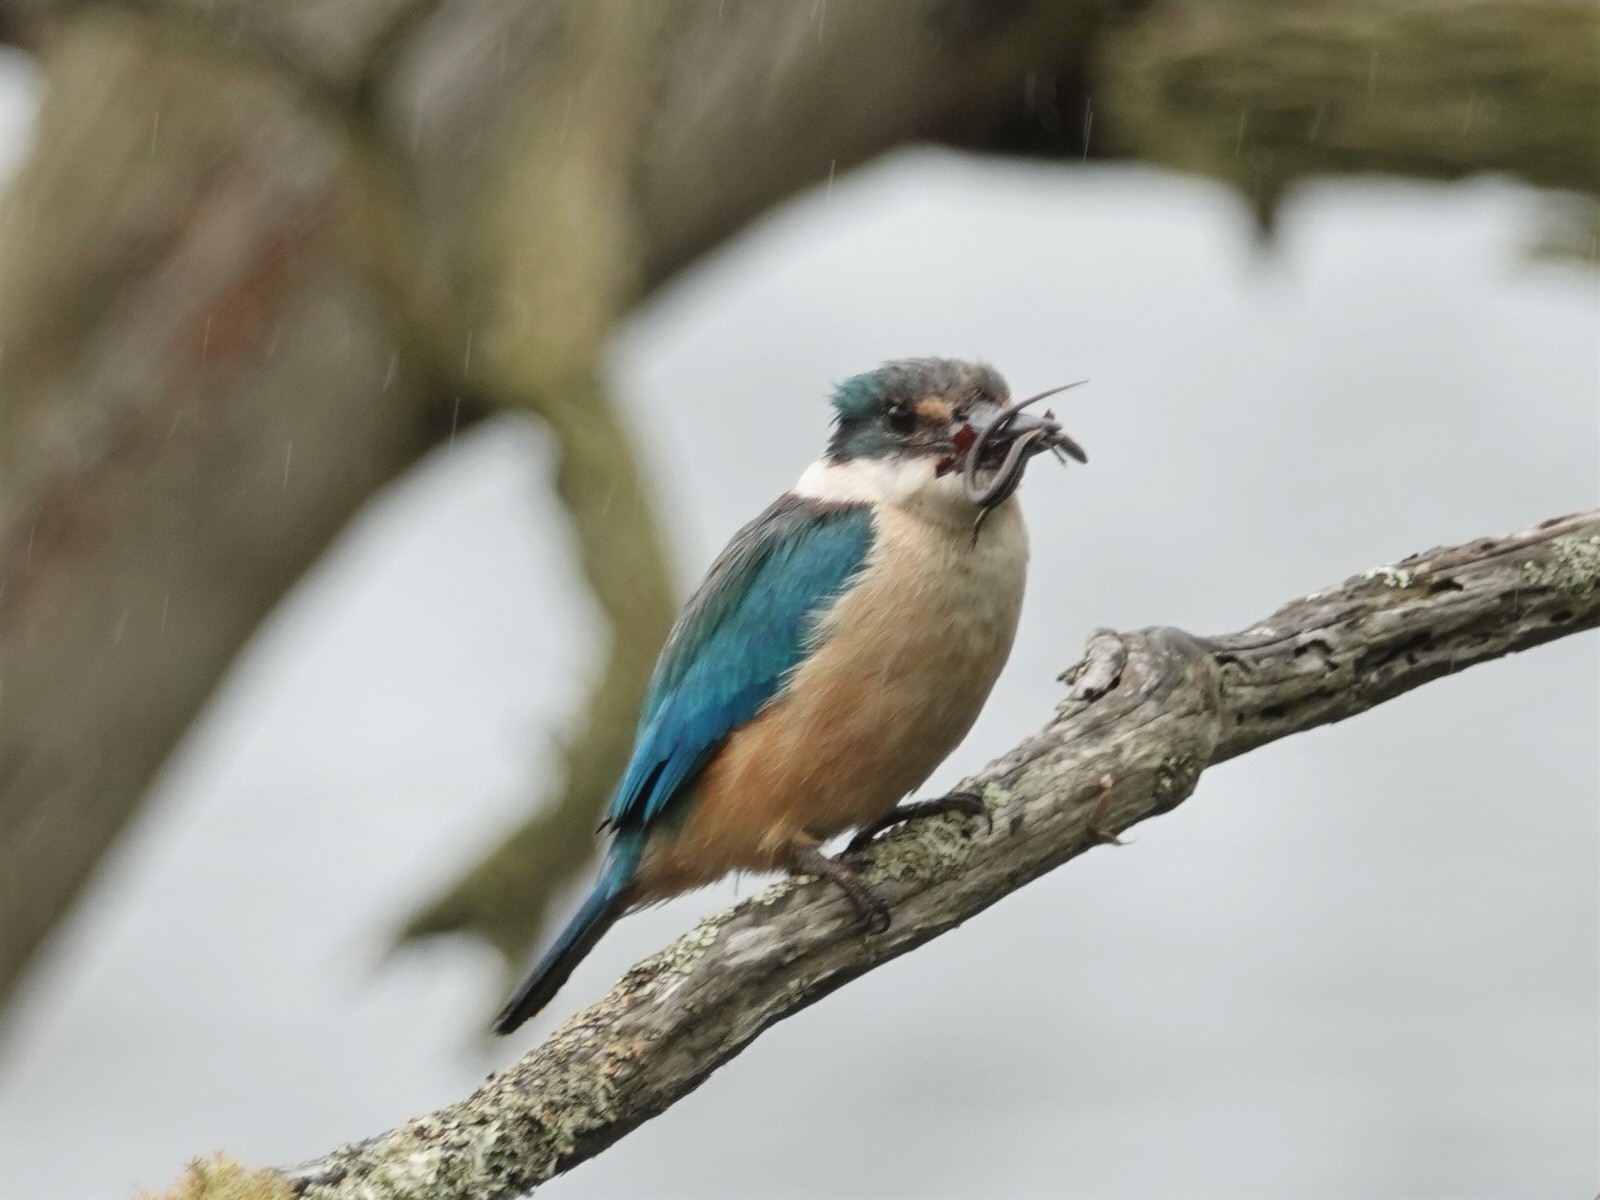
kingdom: Animalia
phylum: Chordata
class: Aves
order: Coraciiformes
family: Alcedinidae
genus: Todiramphus
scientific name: Todiramphus sanctus
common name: Sacred kingfisher
